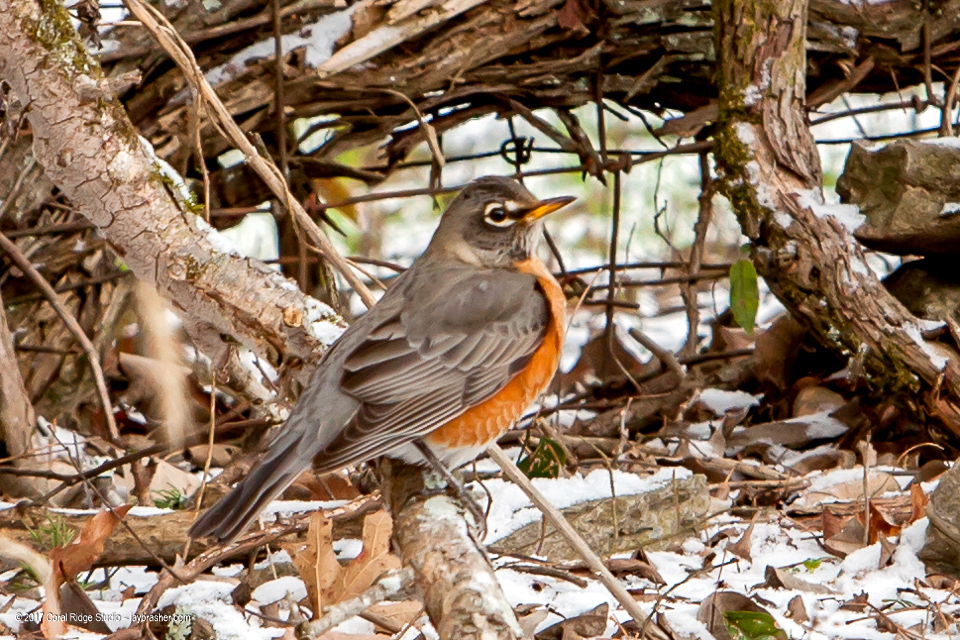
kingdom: Animalia
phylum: Chordata
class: Aves
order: Passeriformes
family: Turdidae
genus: Turdus
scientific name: Turdus migratorius
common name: American robin
